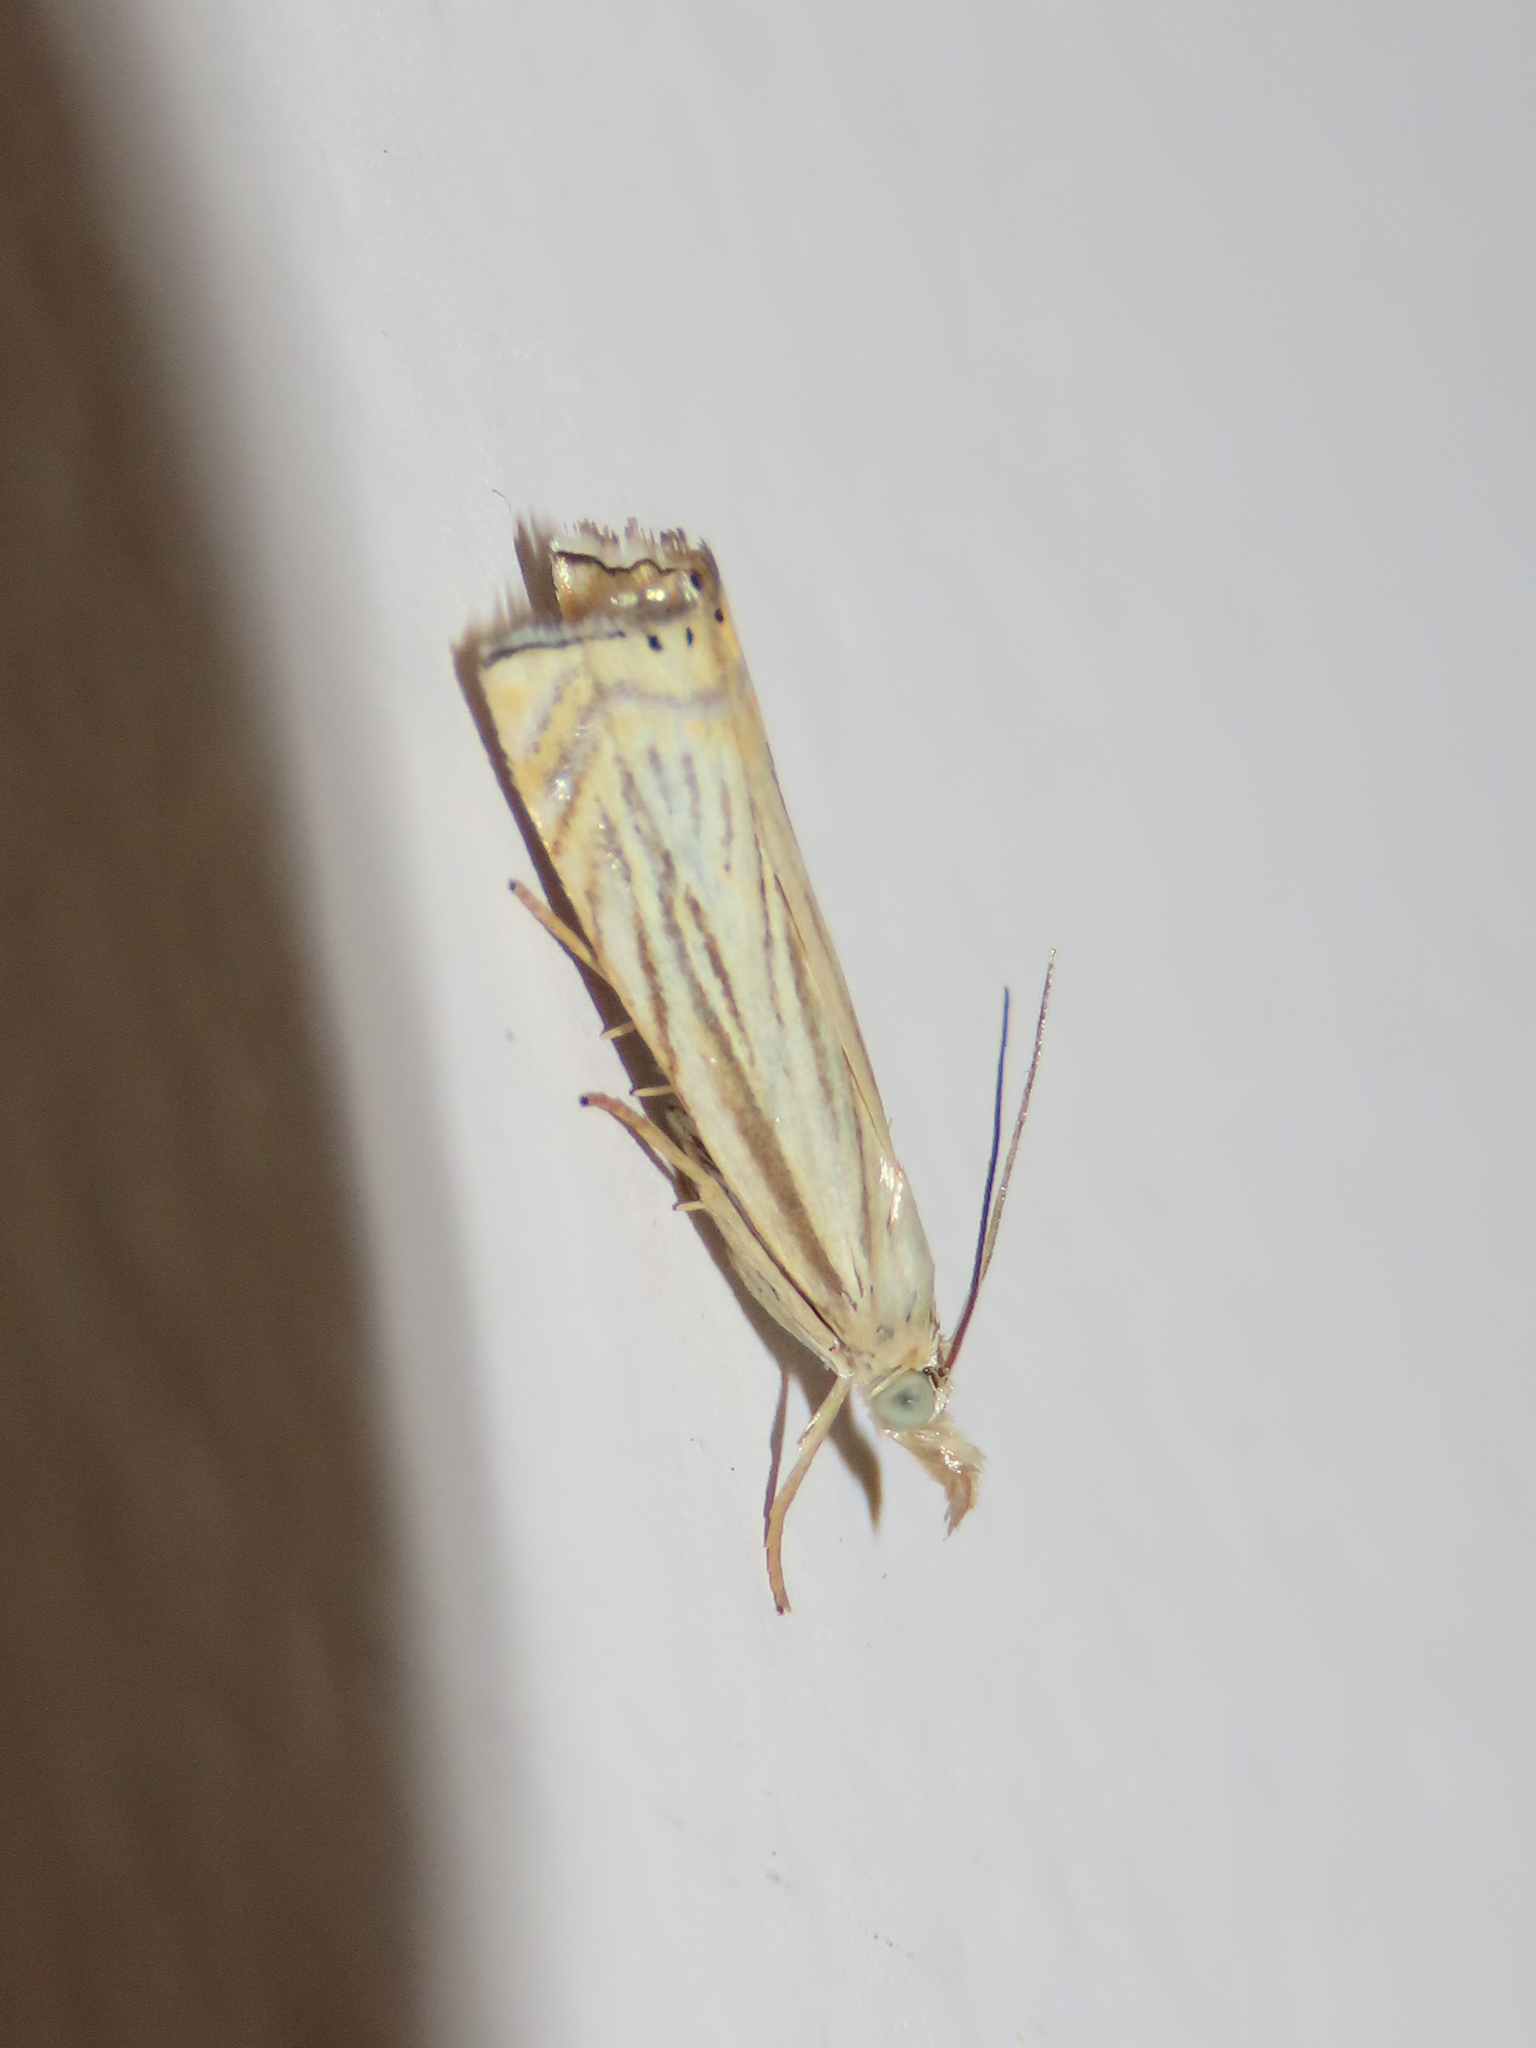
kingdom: Animalia
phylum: Arthropoda
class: Insecta
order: Lepidoptera
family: Crambidae
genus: Chrysoteuchia
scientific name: Chrysoteuchia topiarius
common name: Topiary grass-veneer
